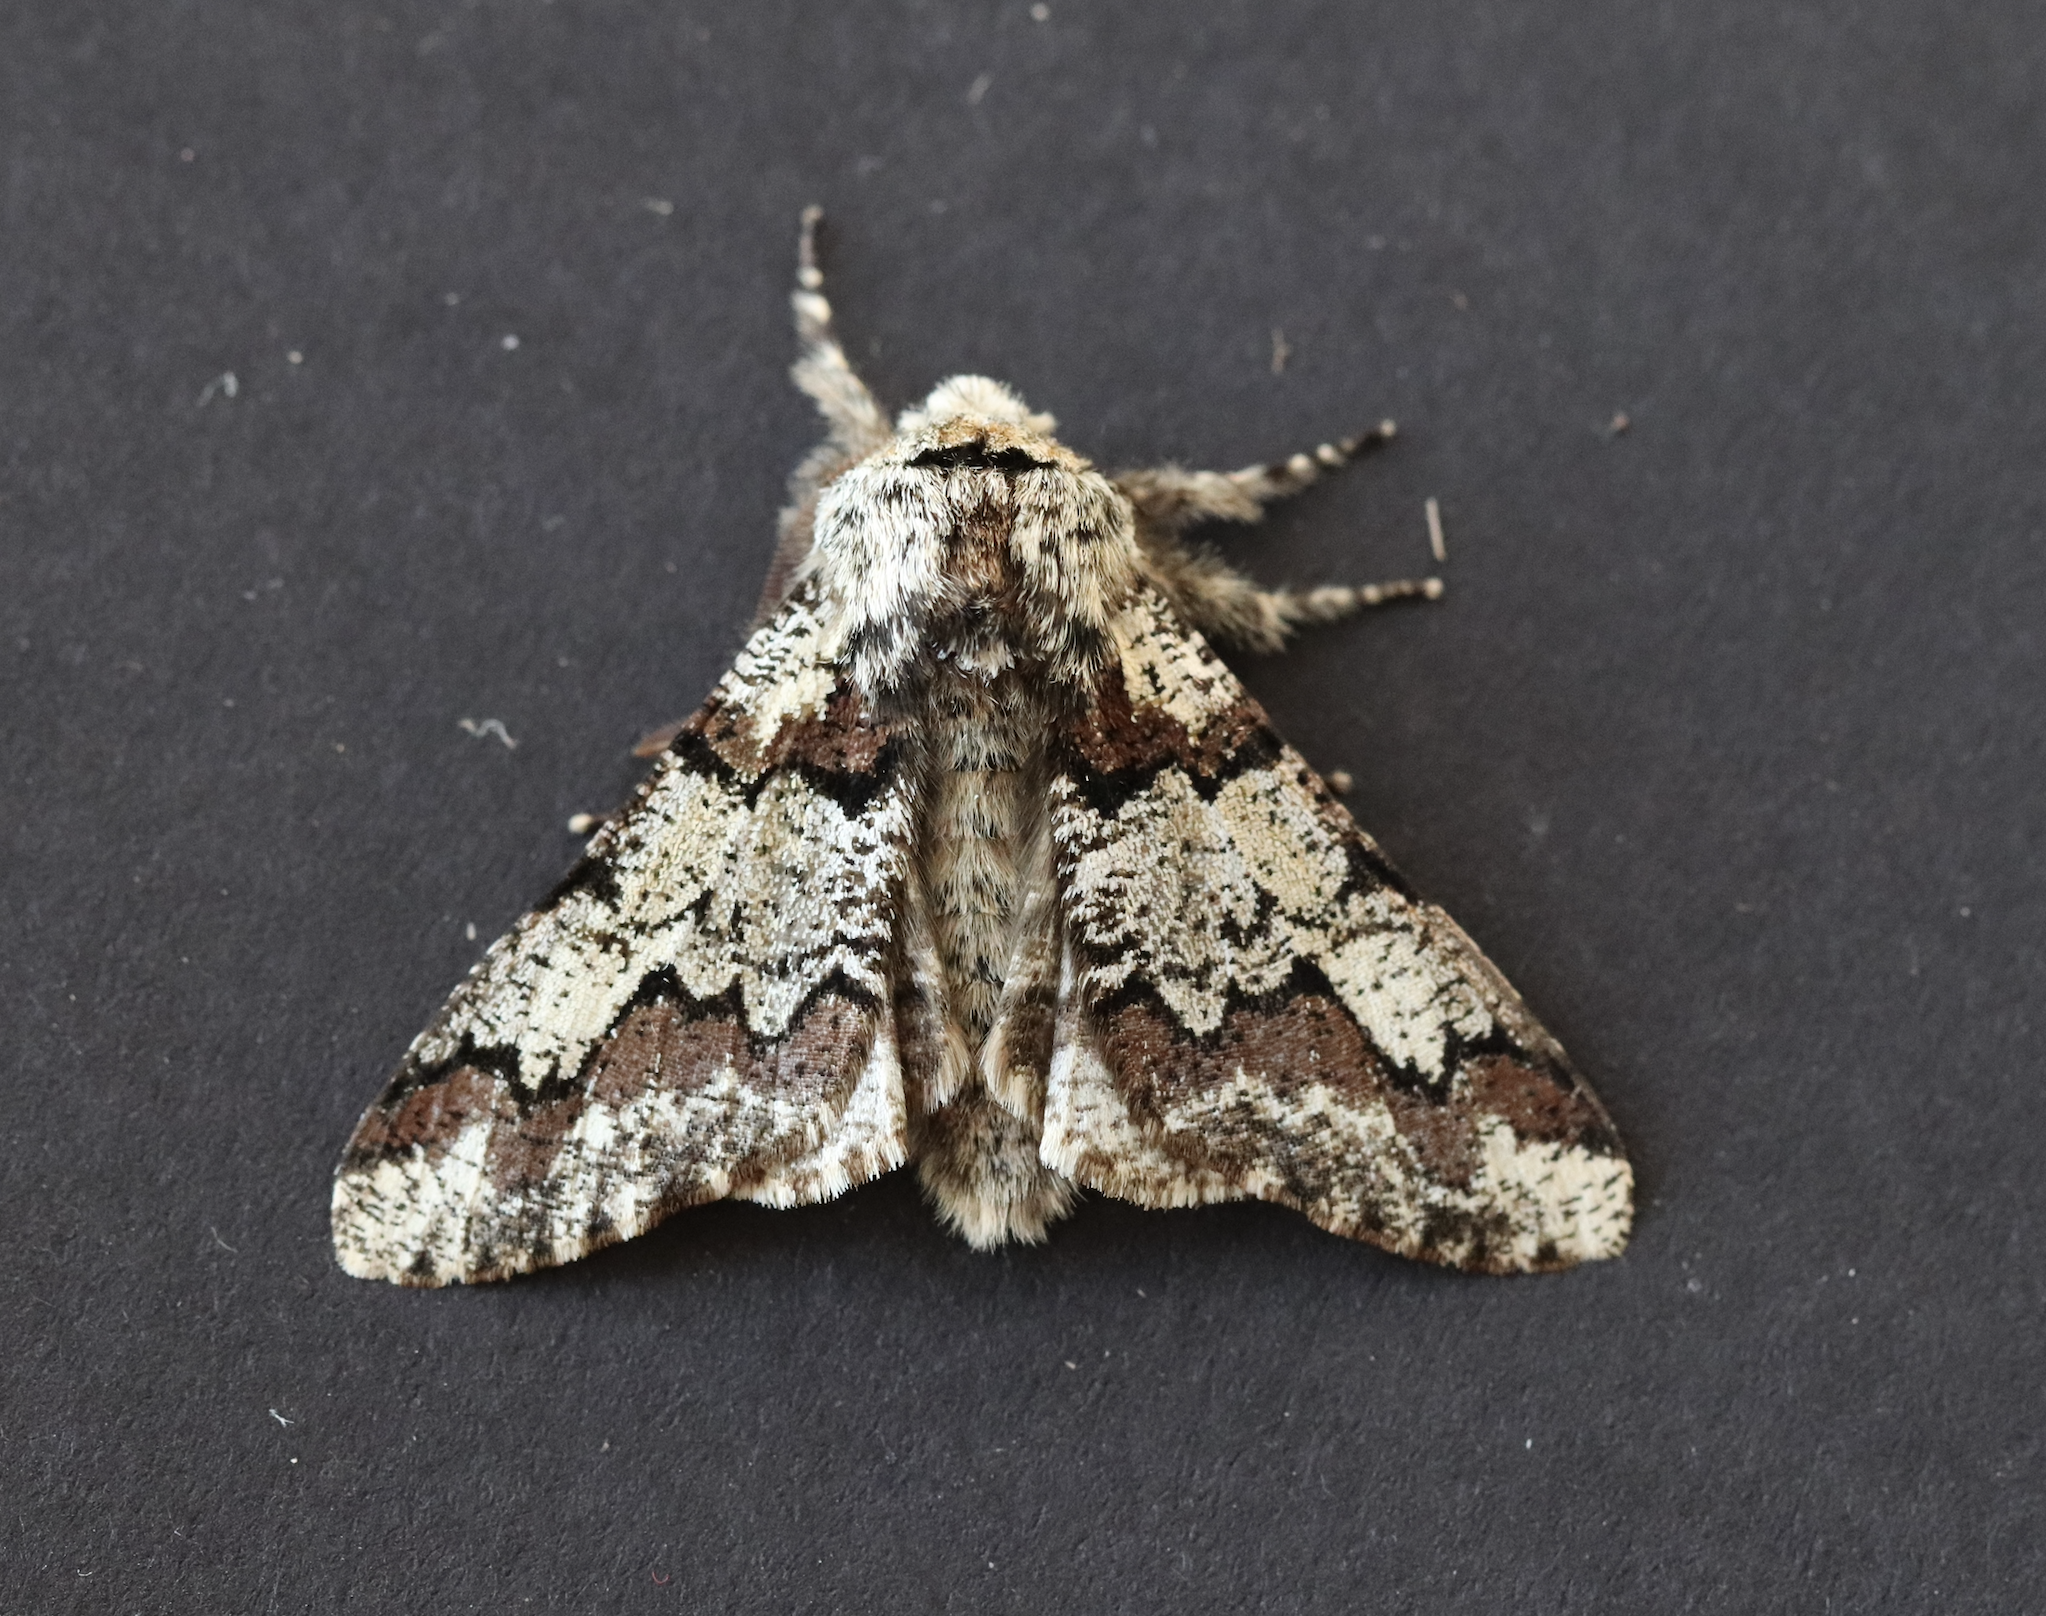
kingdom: Animalia
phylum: Arthropoda
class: Insecta
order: Lepidoptera
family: Geometridae
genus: Biston
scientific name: Biston strataria
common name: Oak beauty
